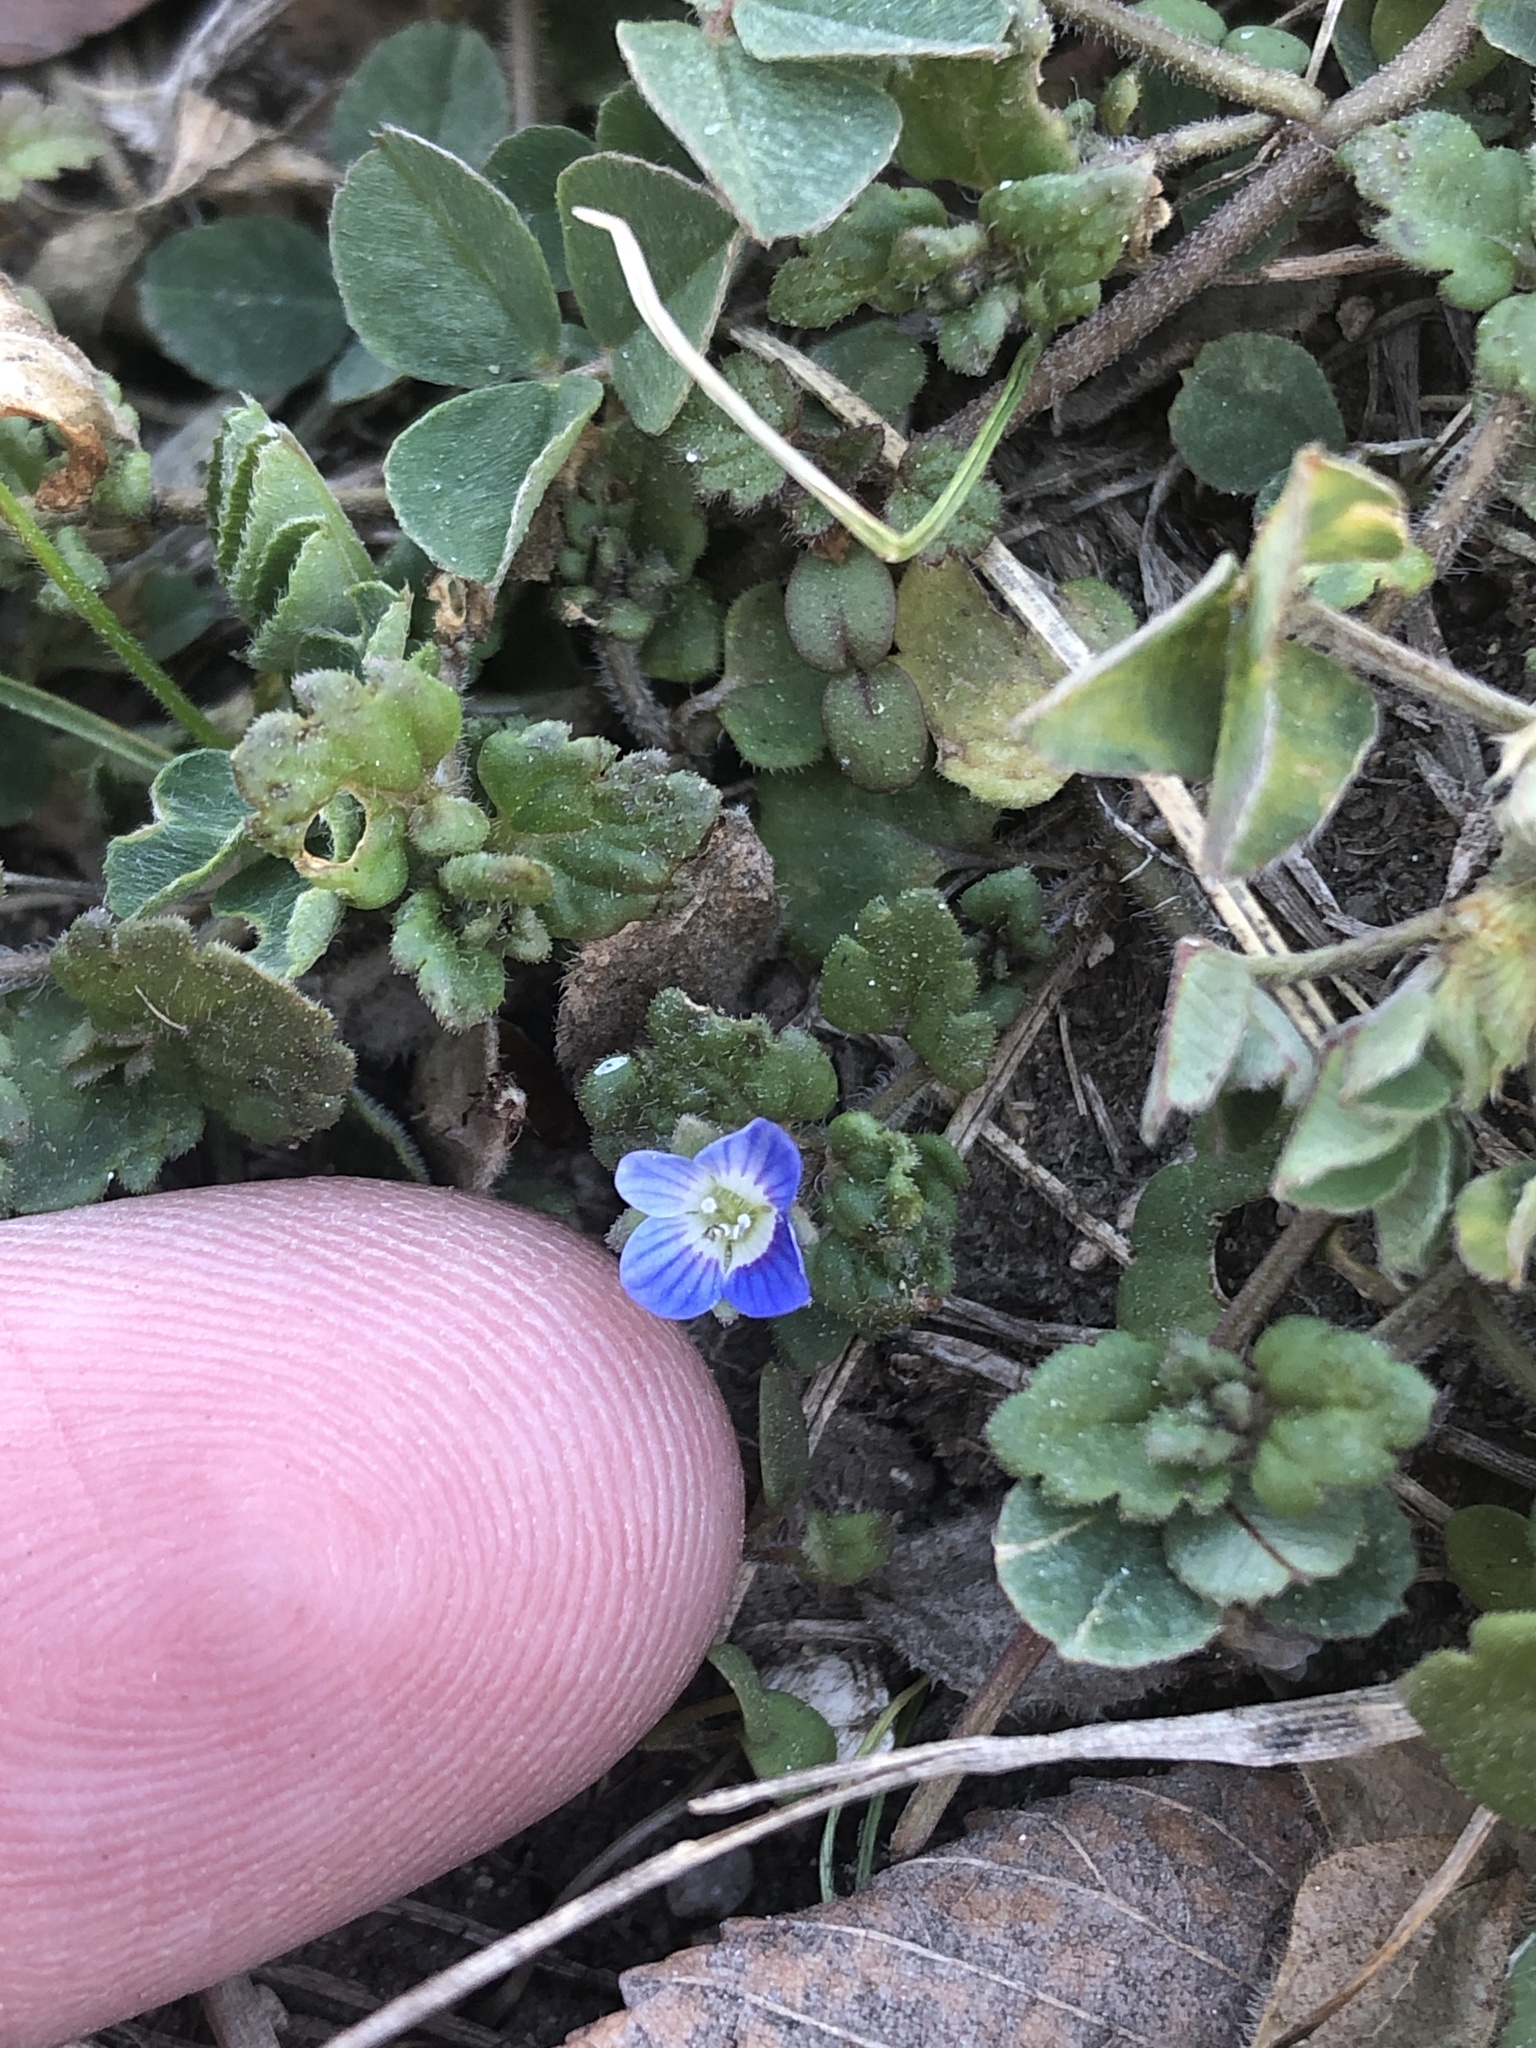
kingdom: Plantae
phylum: Tracheophyta
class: Magnoliopsida
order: Lamiales
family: Plantaginaceae
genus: Veronica
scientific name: Veronica polita
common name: Grey field-speedwell
